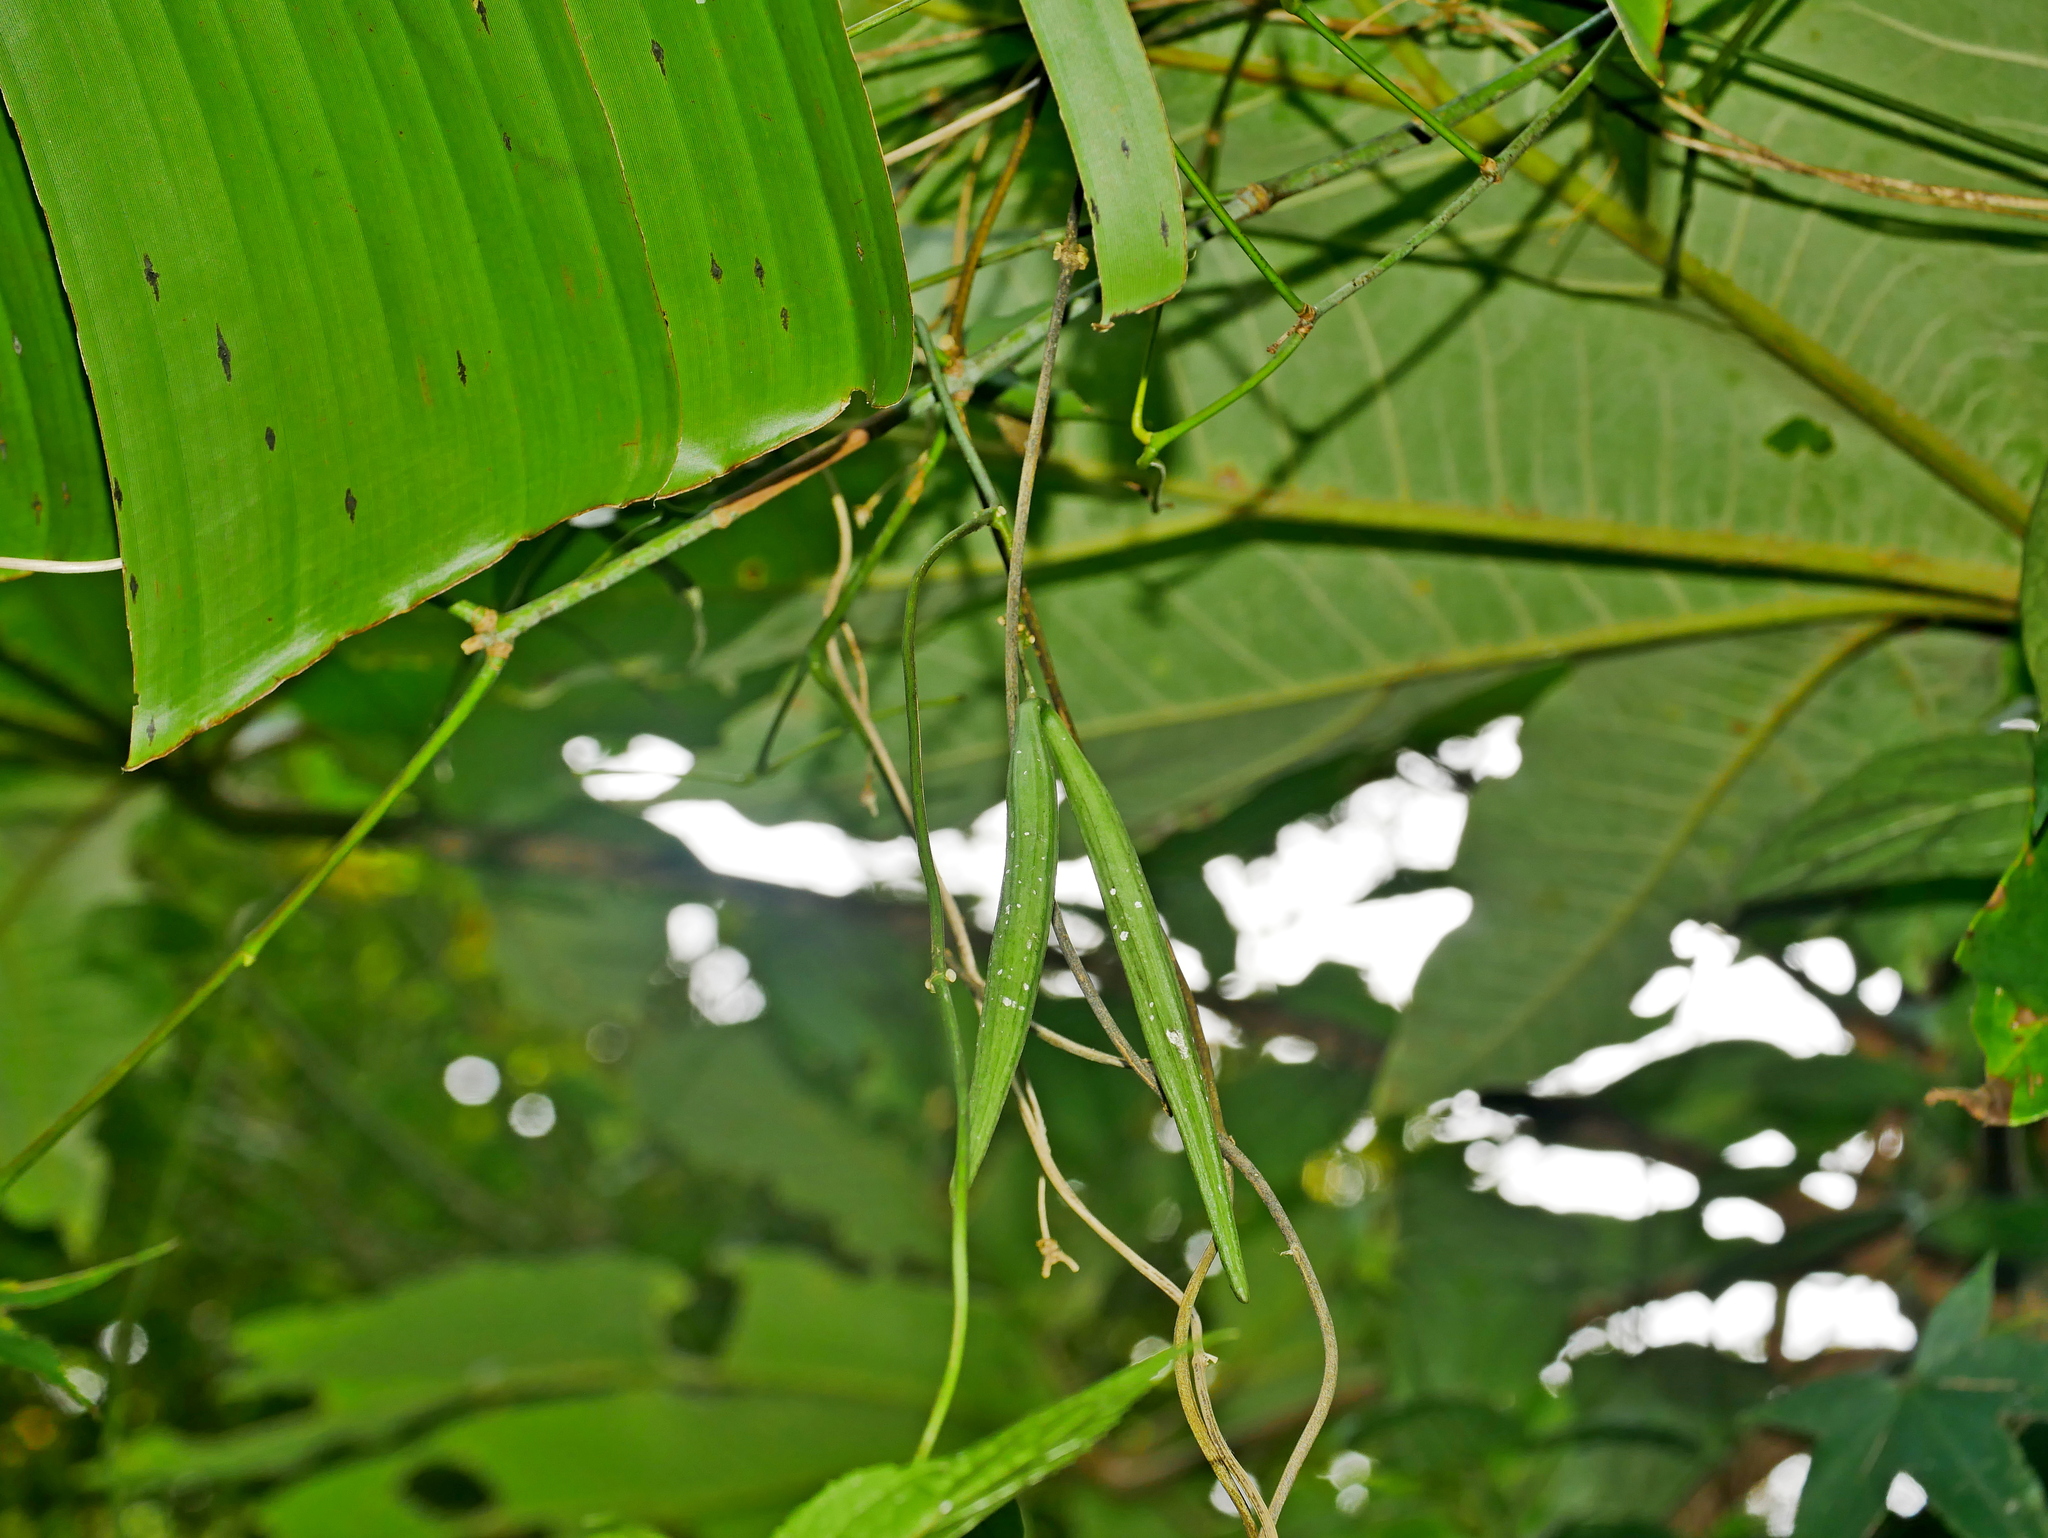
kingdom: Plantae
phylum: Tracheophyta
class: Magnoliopsida
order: Gentianales
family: Apocynaceae
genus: Heterostemma
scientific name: Heterostemma brownii
